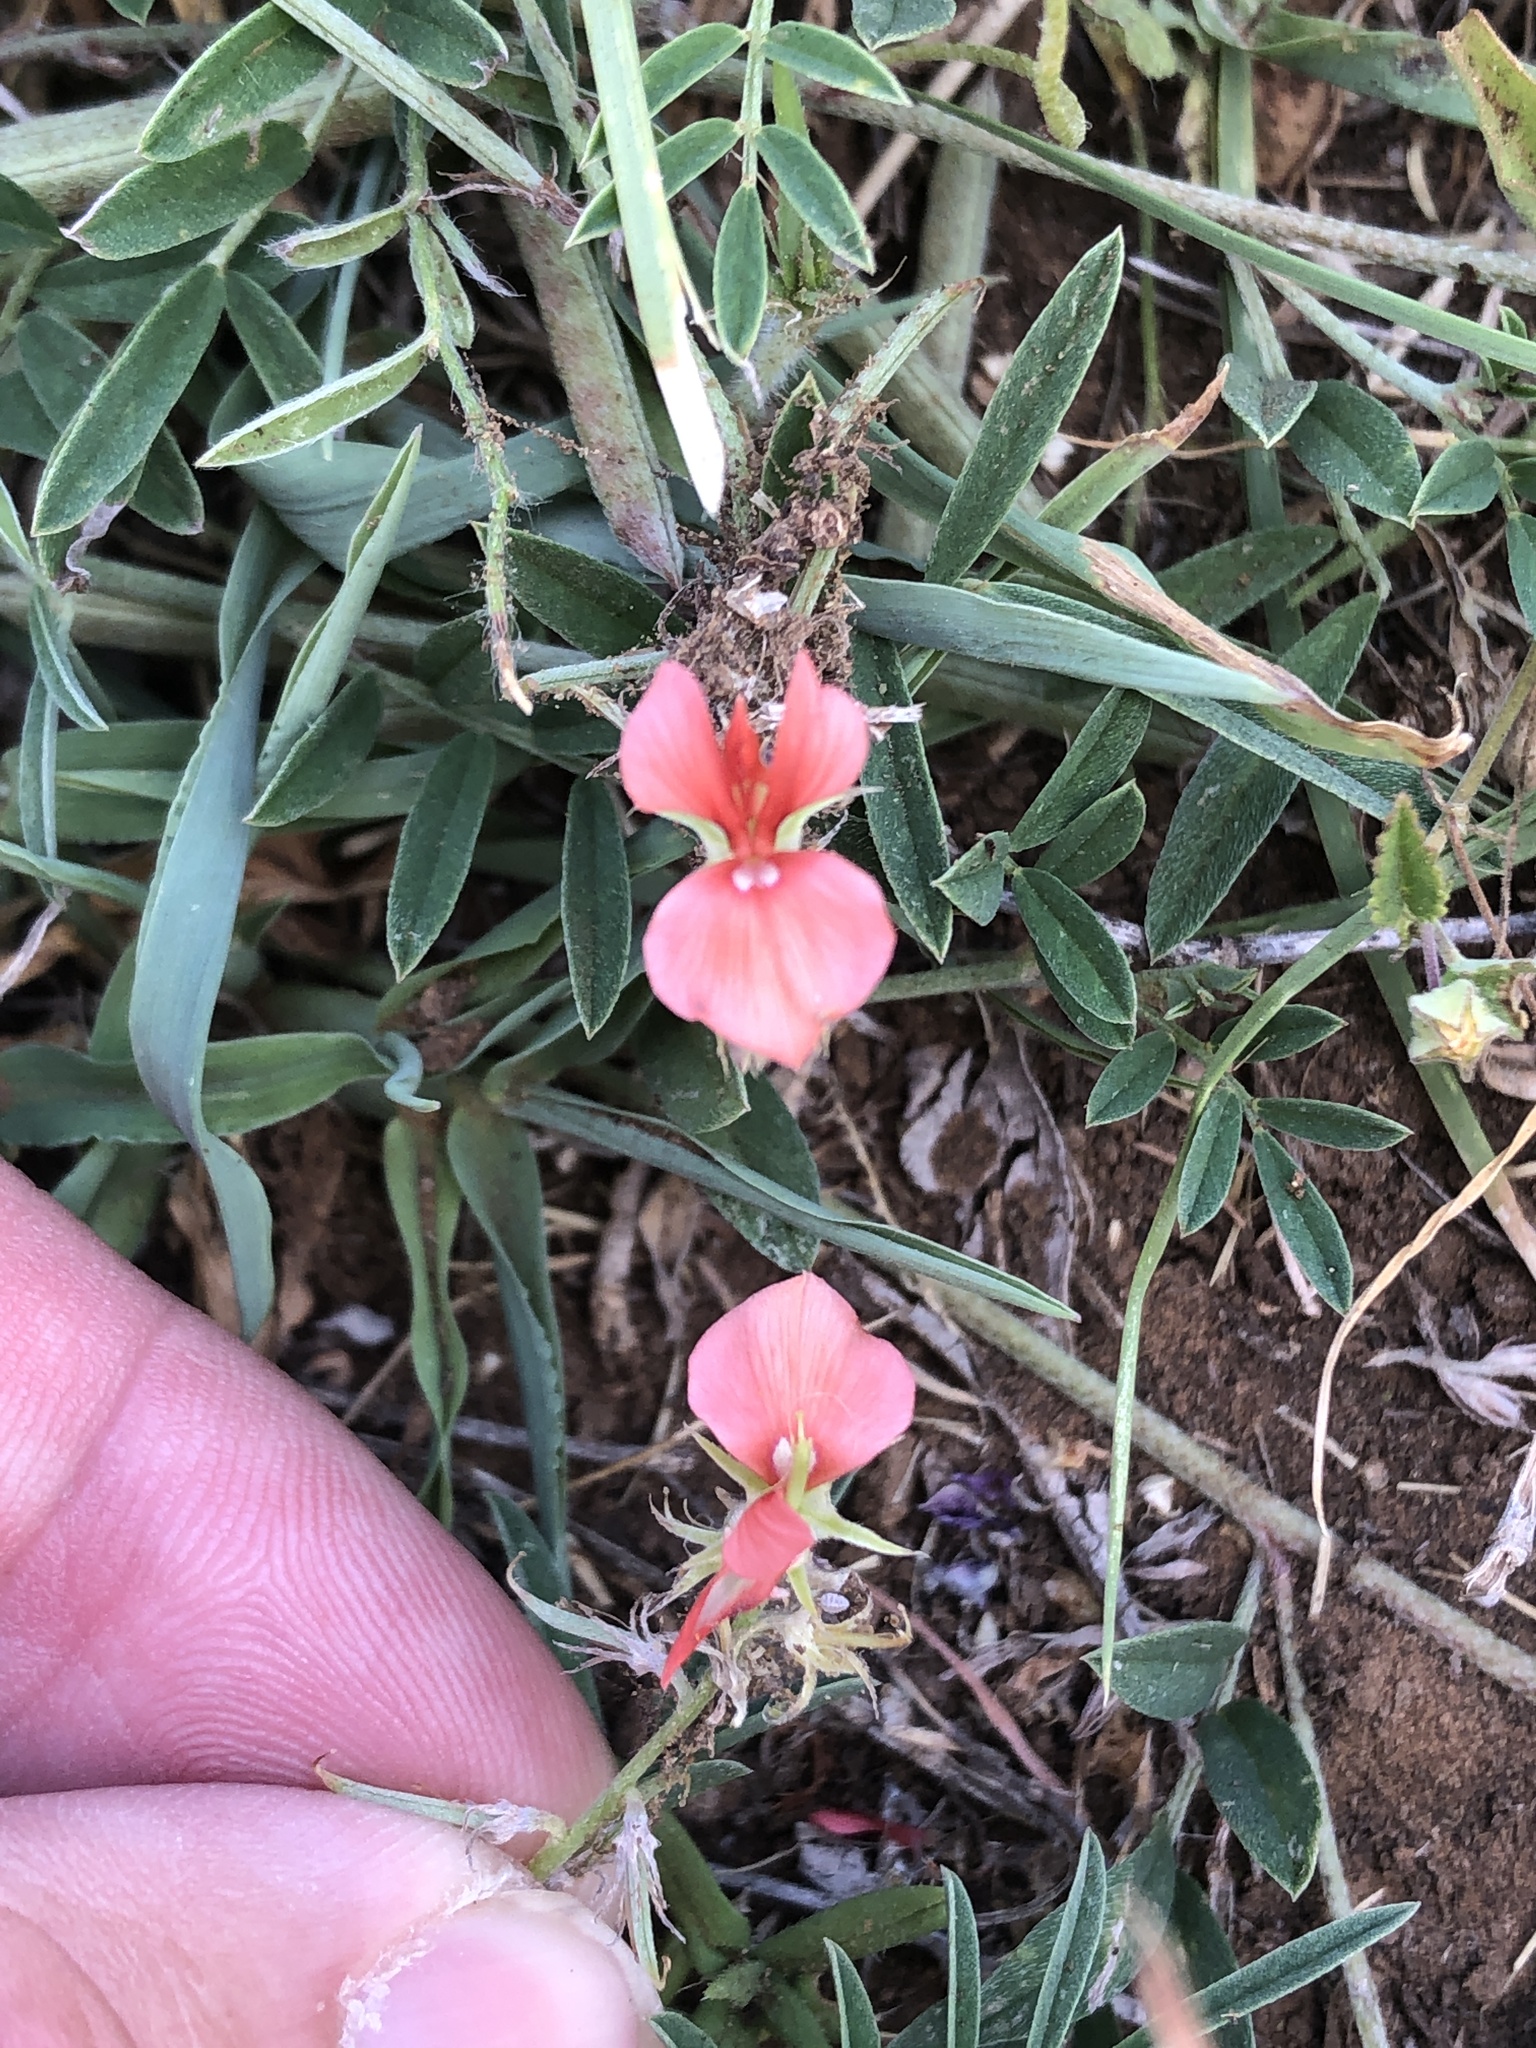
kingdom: Plantae
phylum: Tracheophyta
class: Magnoliopsida
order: Fabales
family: Fabaceae
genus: Indigofera
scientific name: Indigofera miniata
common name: Coast indigo
